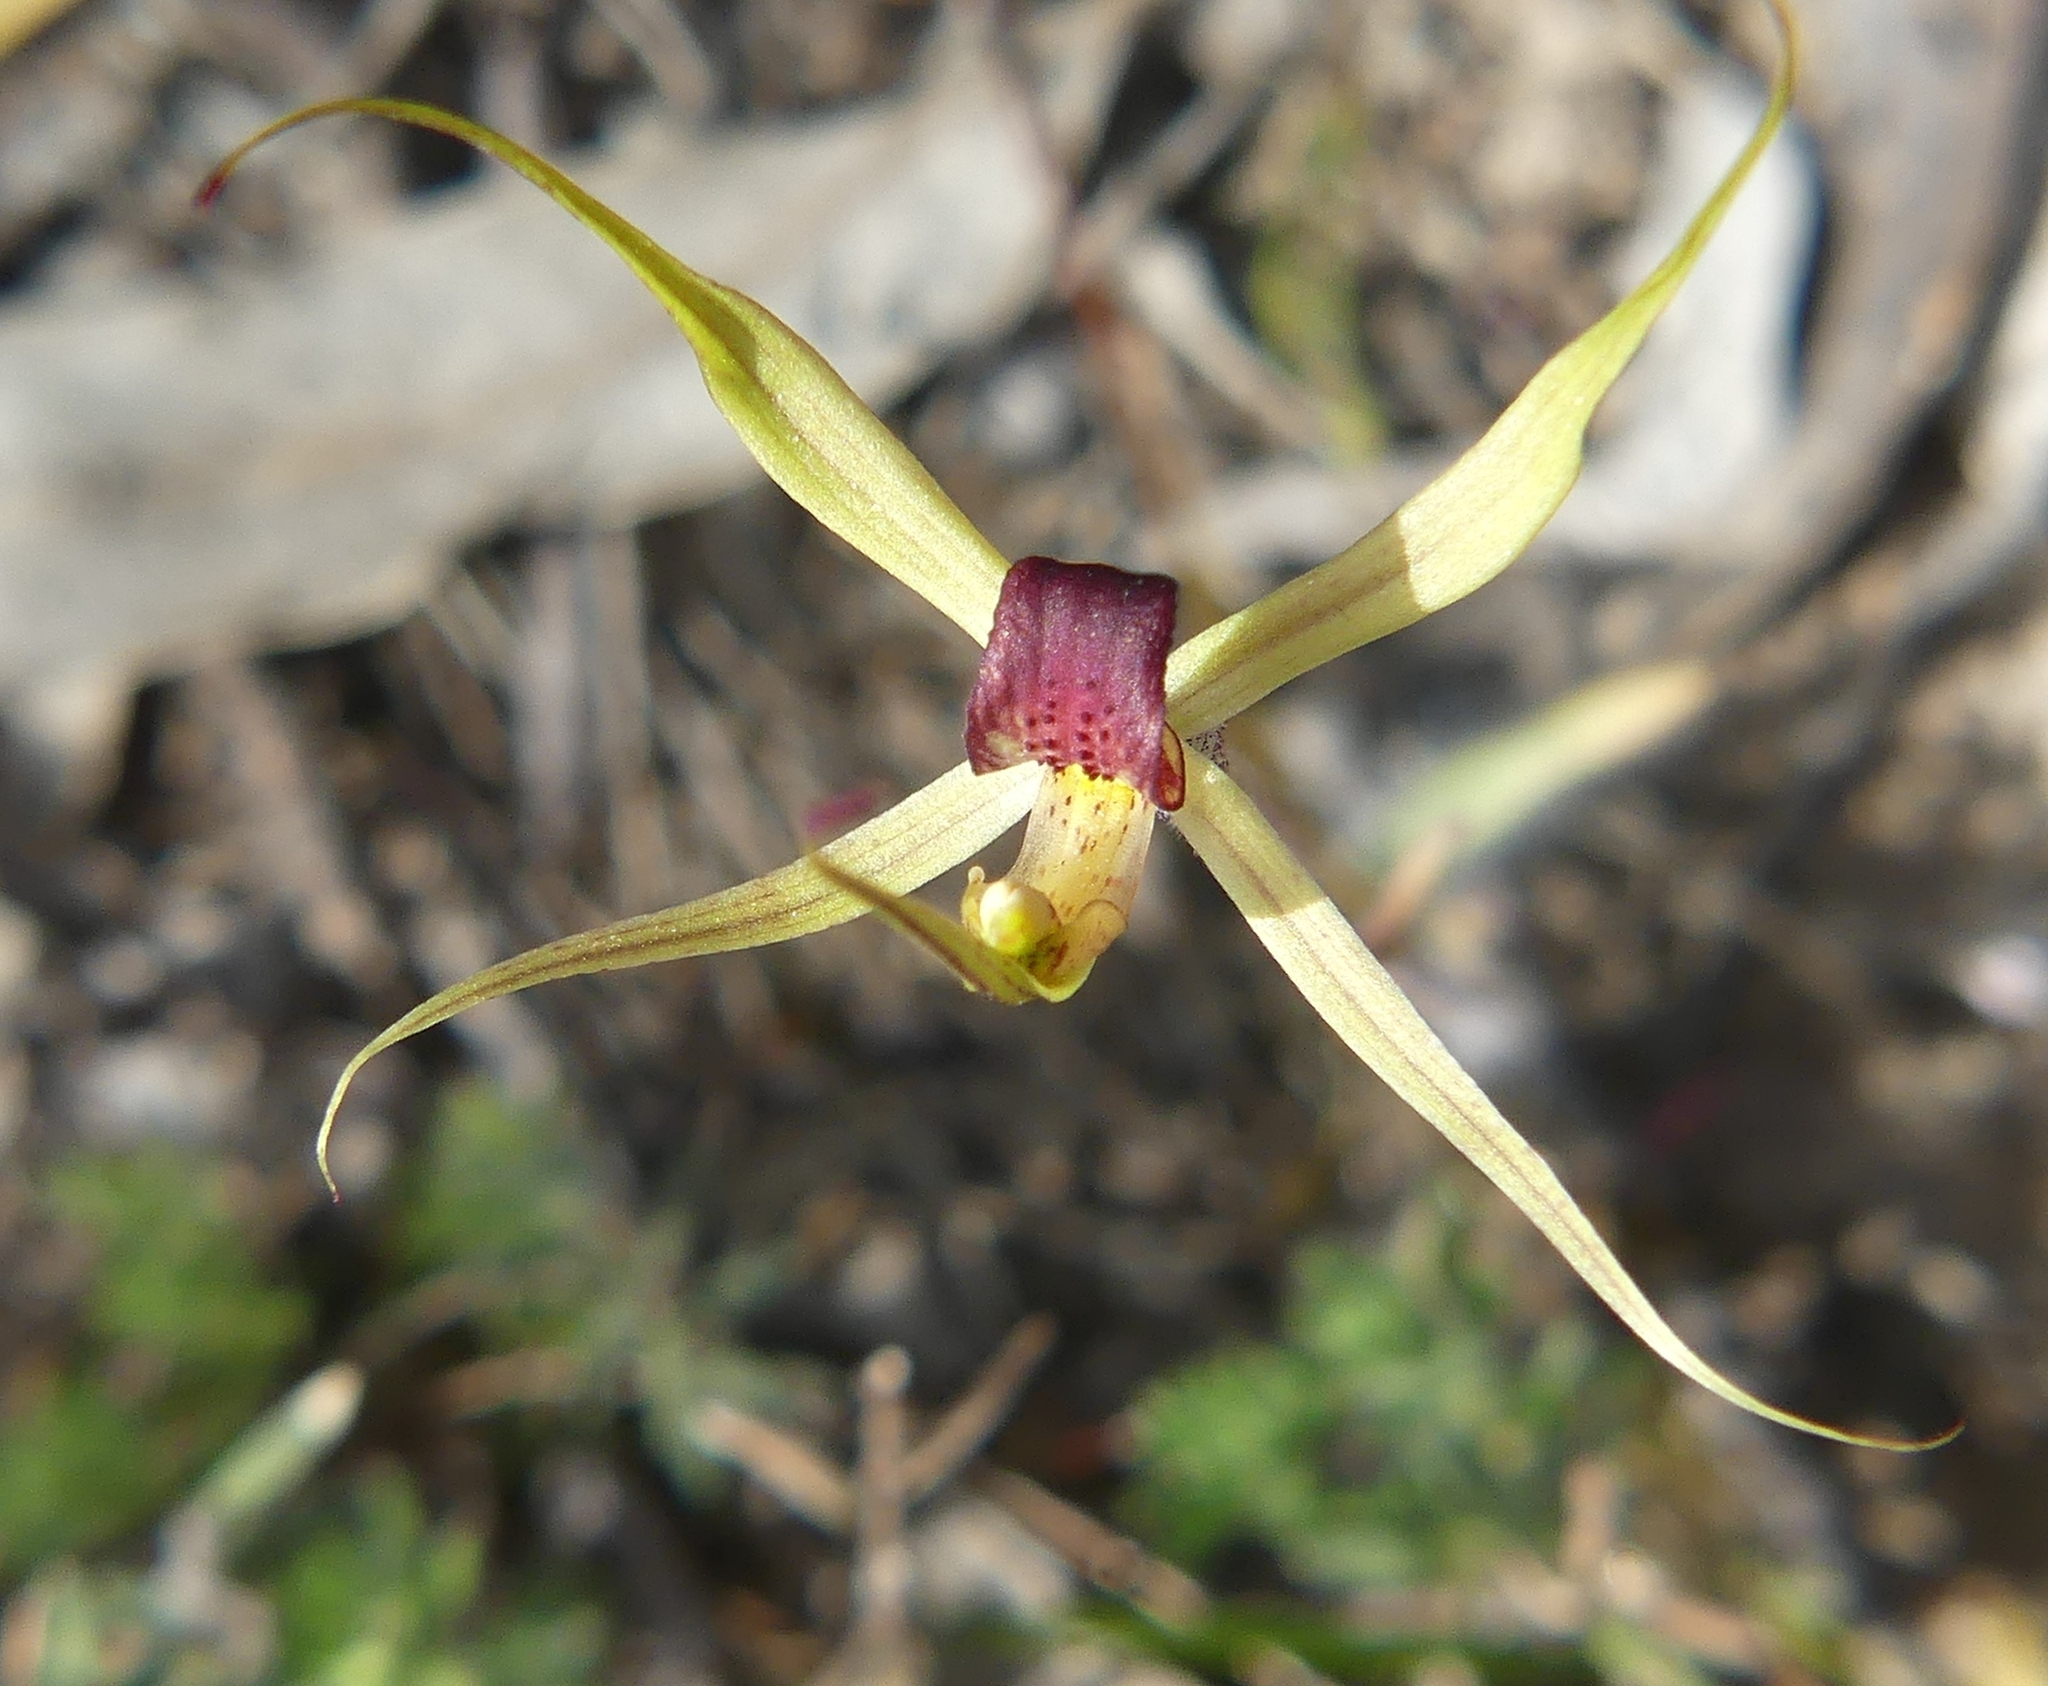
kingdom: Plantae
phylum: Tracheophyta
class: Liliopsida
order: Asparagales
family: Orchidaceae
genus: Caladenia
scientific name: Caladenia leptochila
